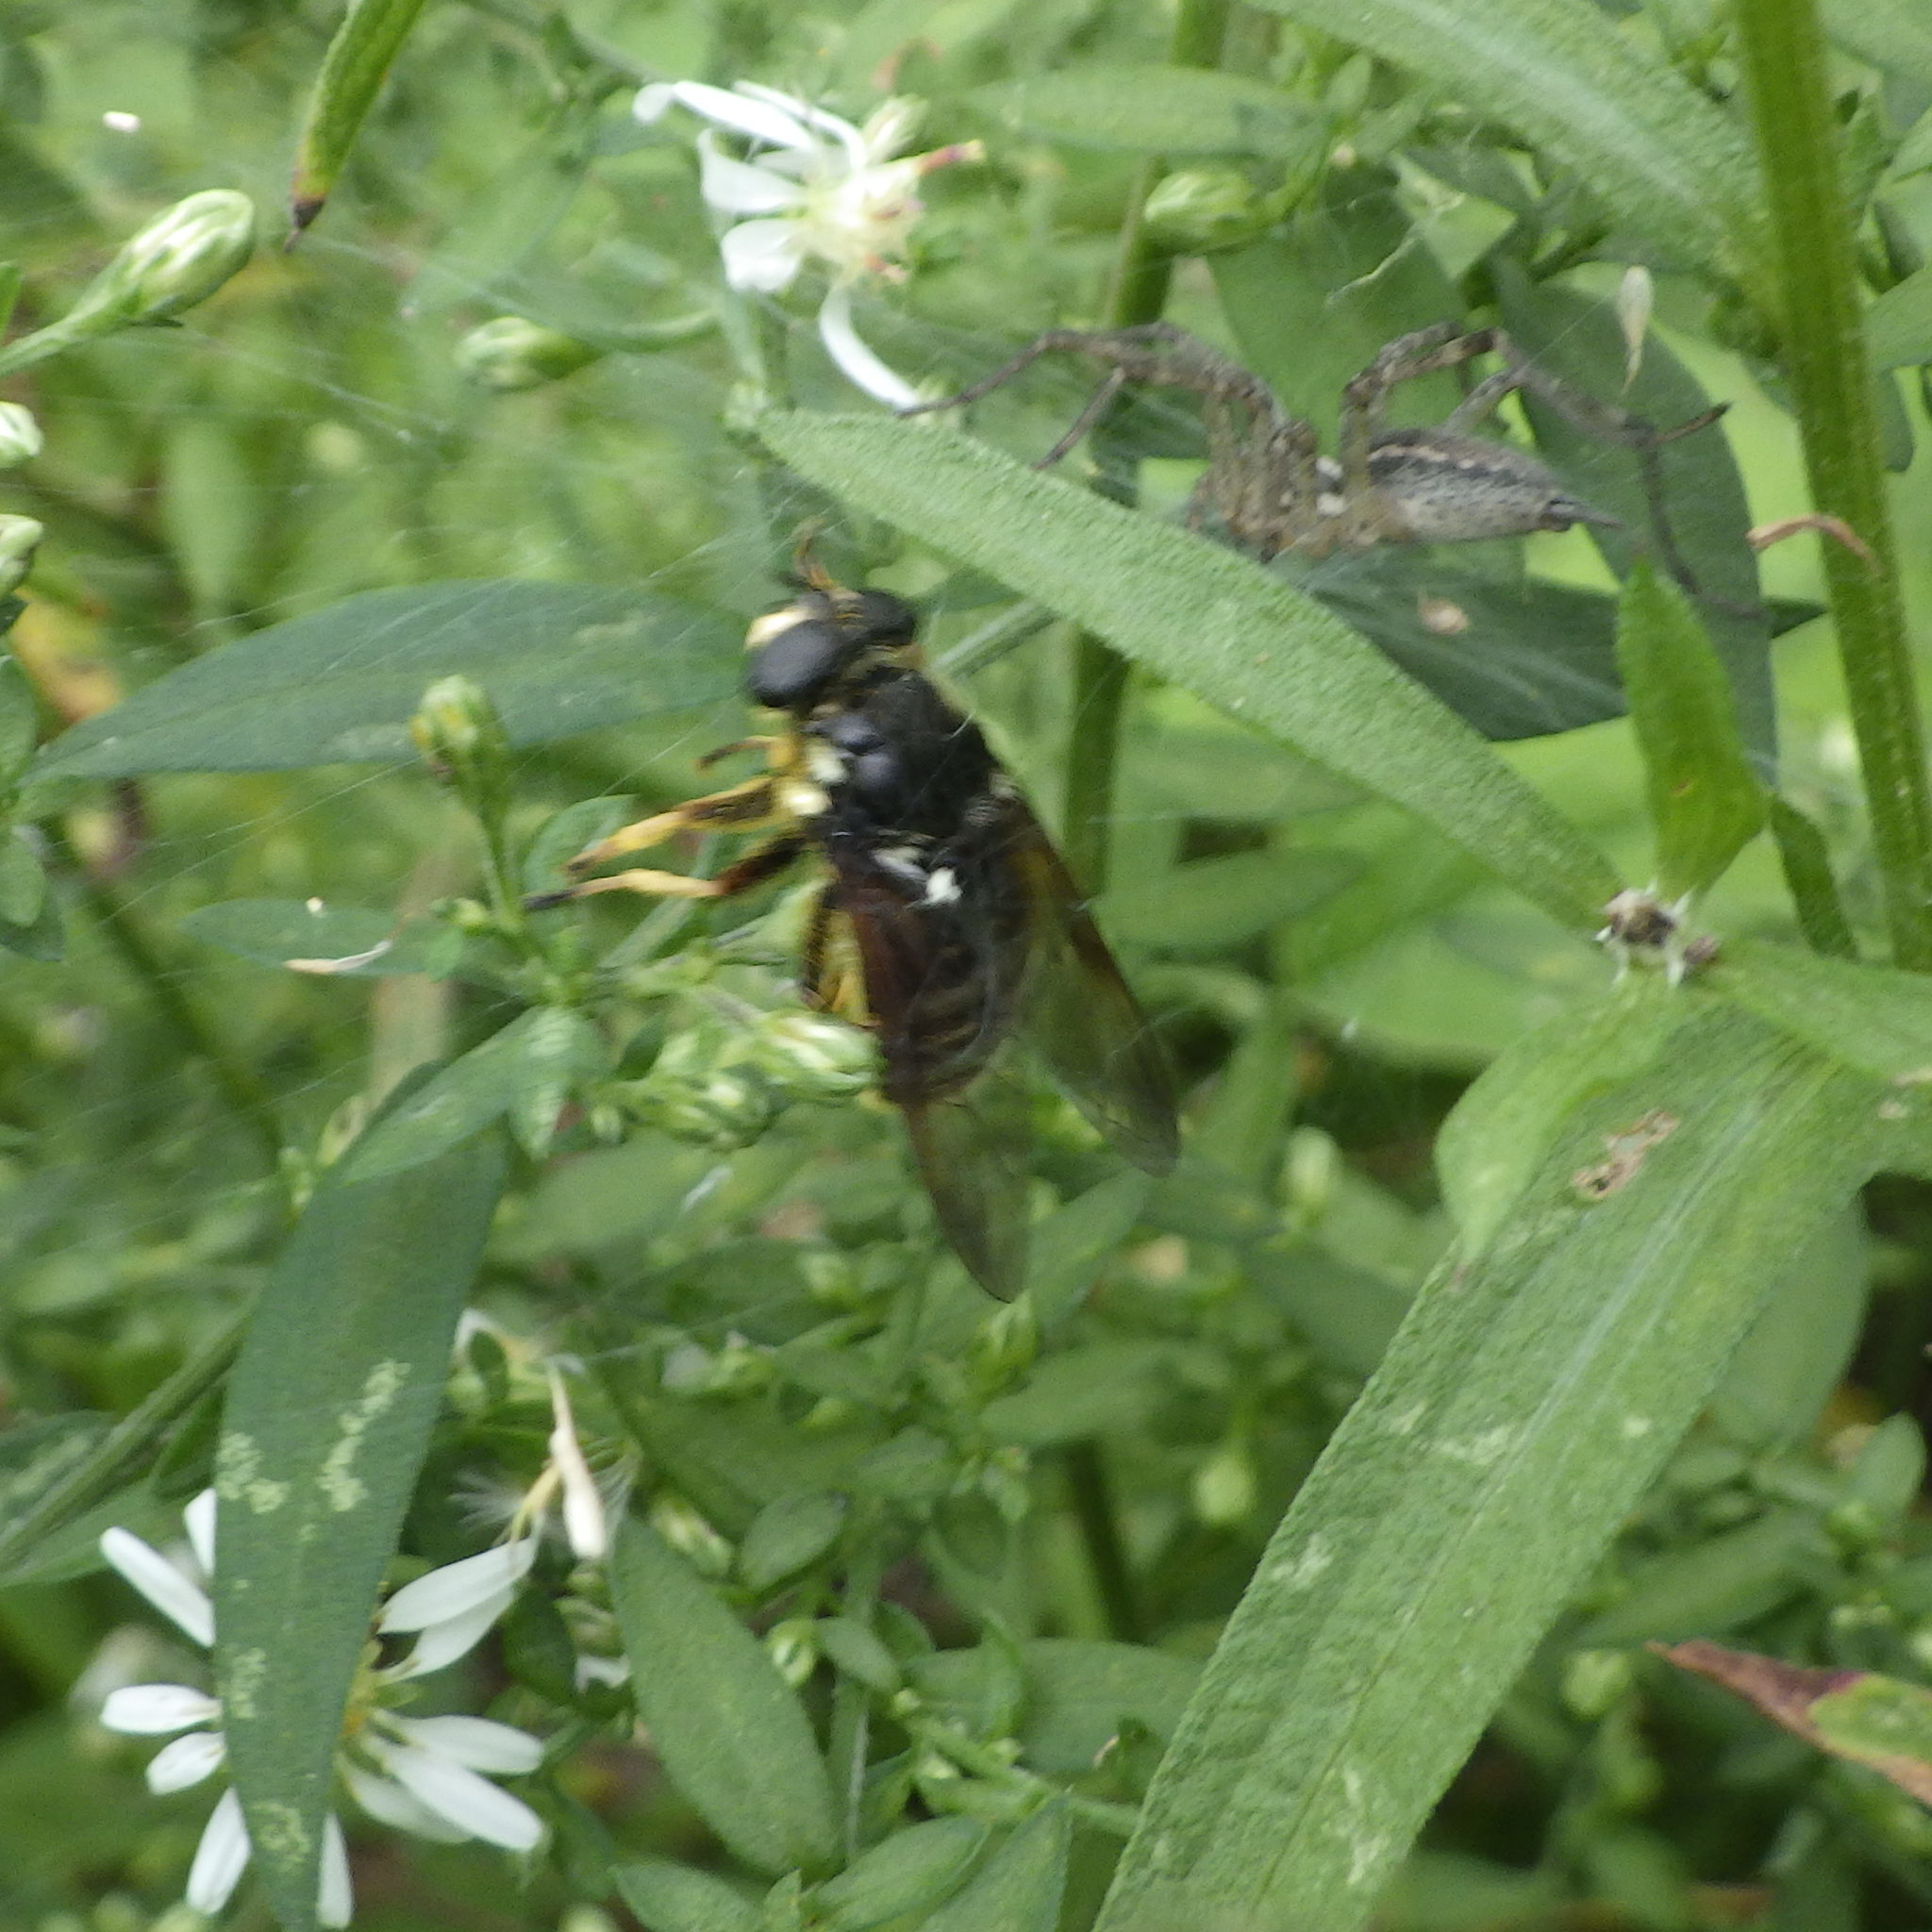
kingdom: Animalia
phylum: Arthropoda
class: Insecta
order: Diptera
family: Syrphidae
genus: Sericomyia
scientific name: Sericomyia militaris
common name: Narrow-banded pond fly
